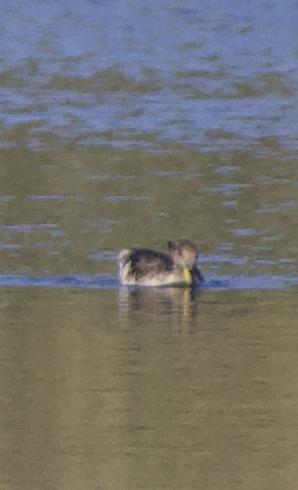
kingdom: Animalia
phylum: Chordata
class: Aves
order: Anseriformes
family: Anatidae
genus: Anas
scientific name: Anas georgica
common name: Yellow-billed pintail
